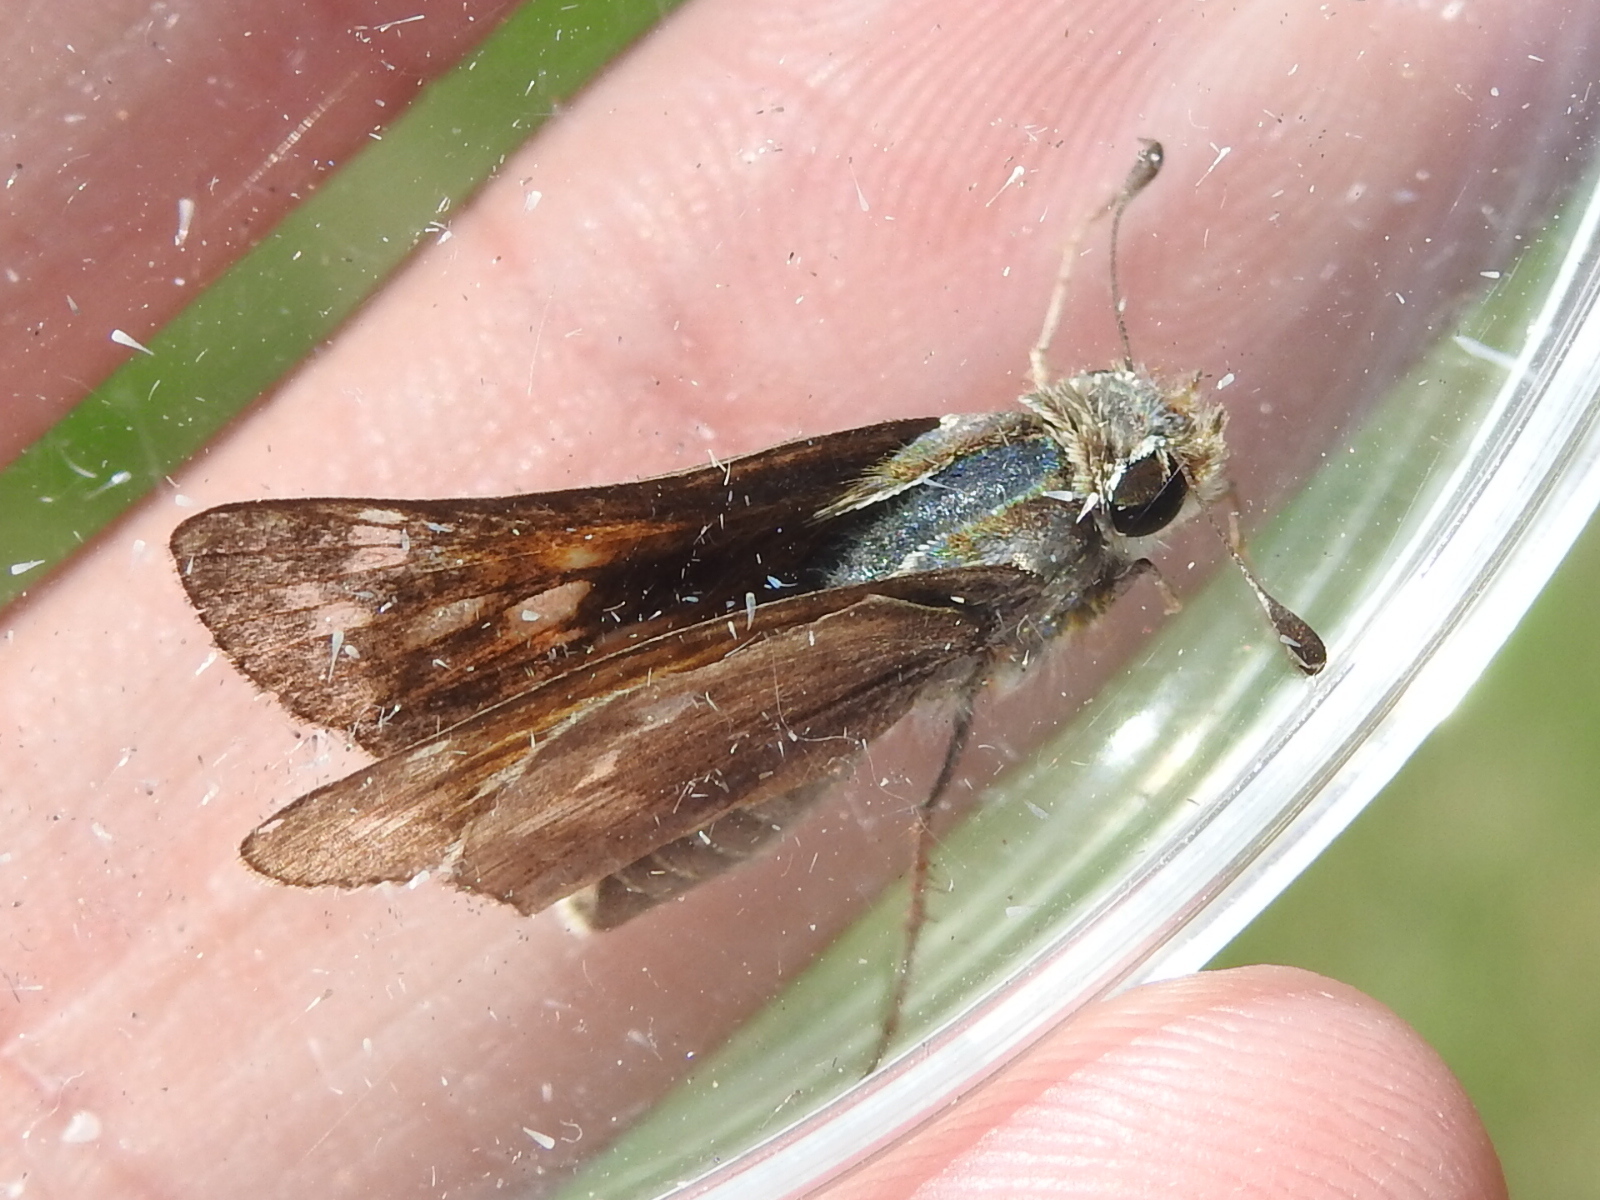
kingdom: Animalia
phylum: Arthropoda
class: Insecta
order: Lepidoptera
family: Hesperiidae
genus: Atalopedes
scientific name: Atalopedes
